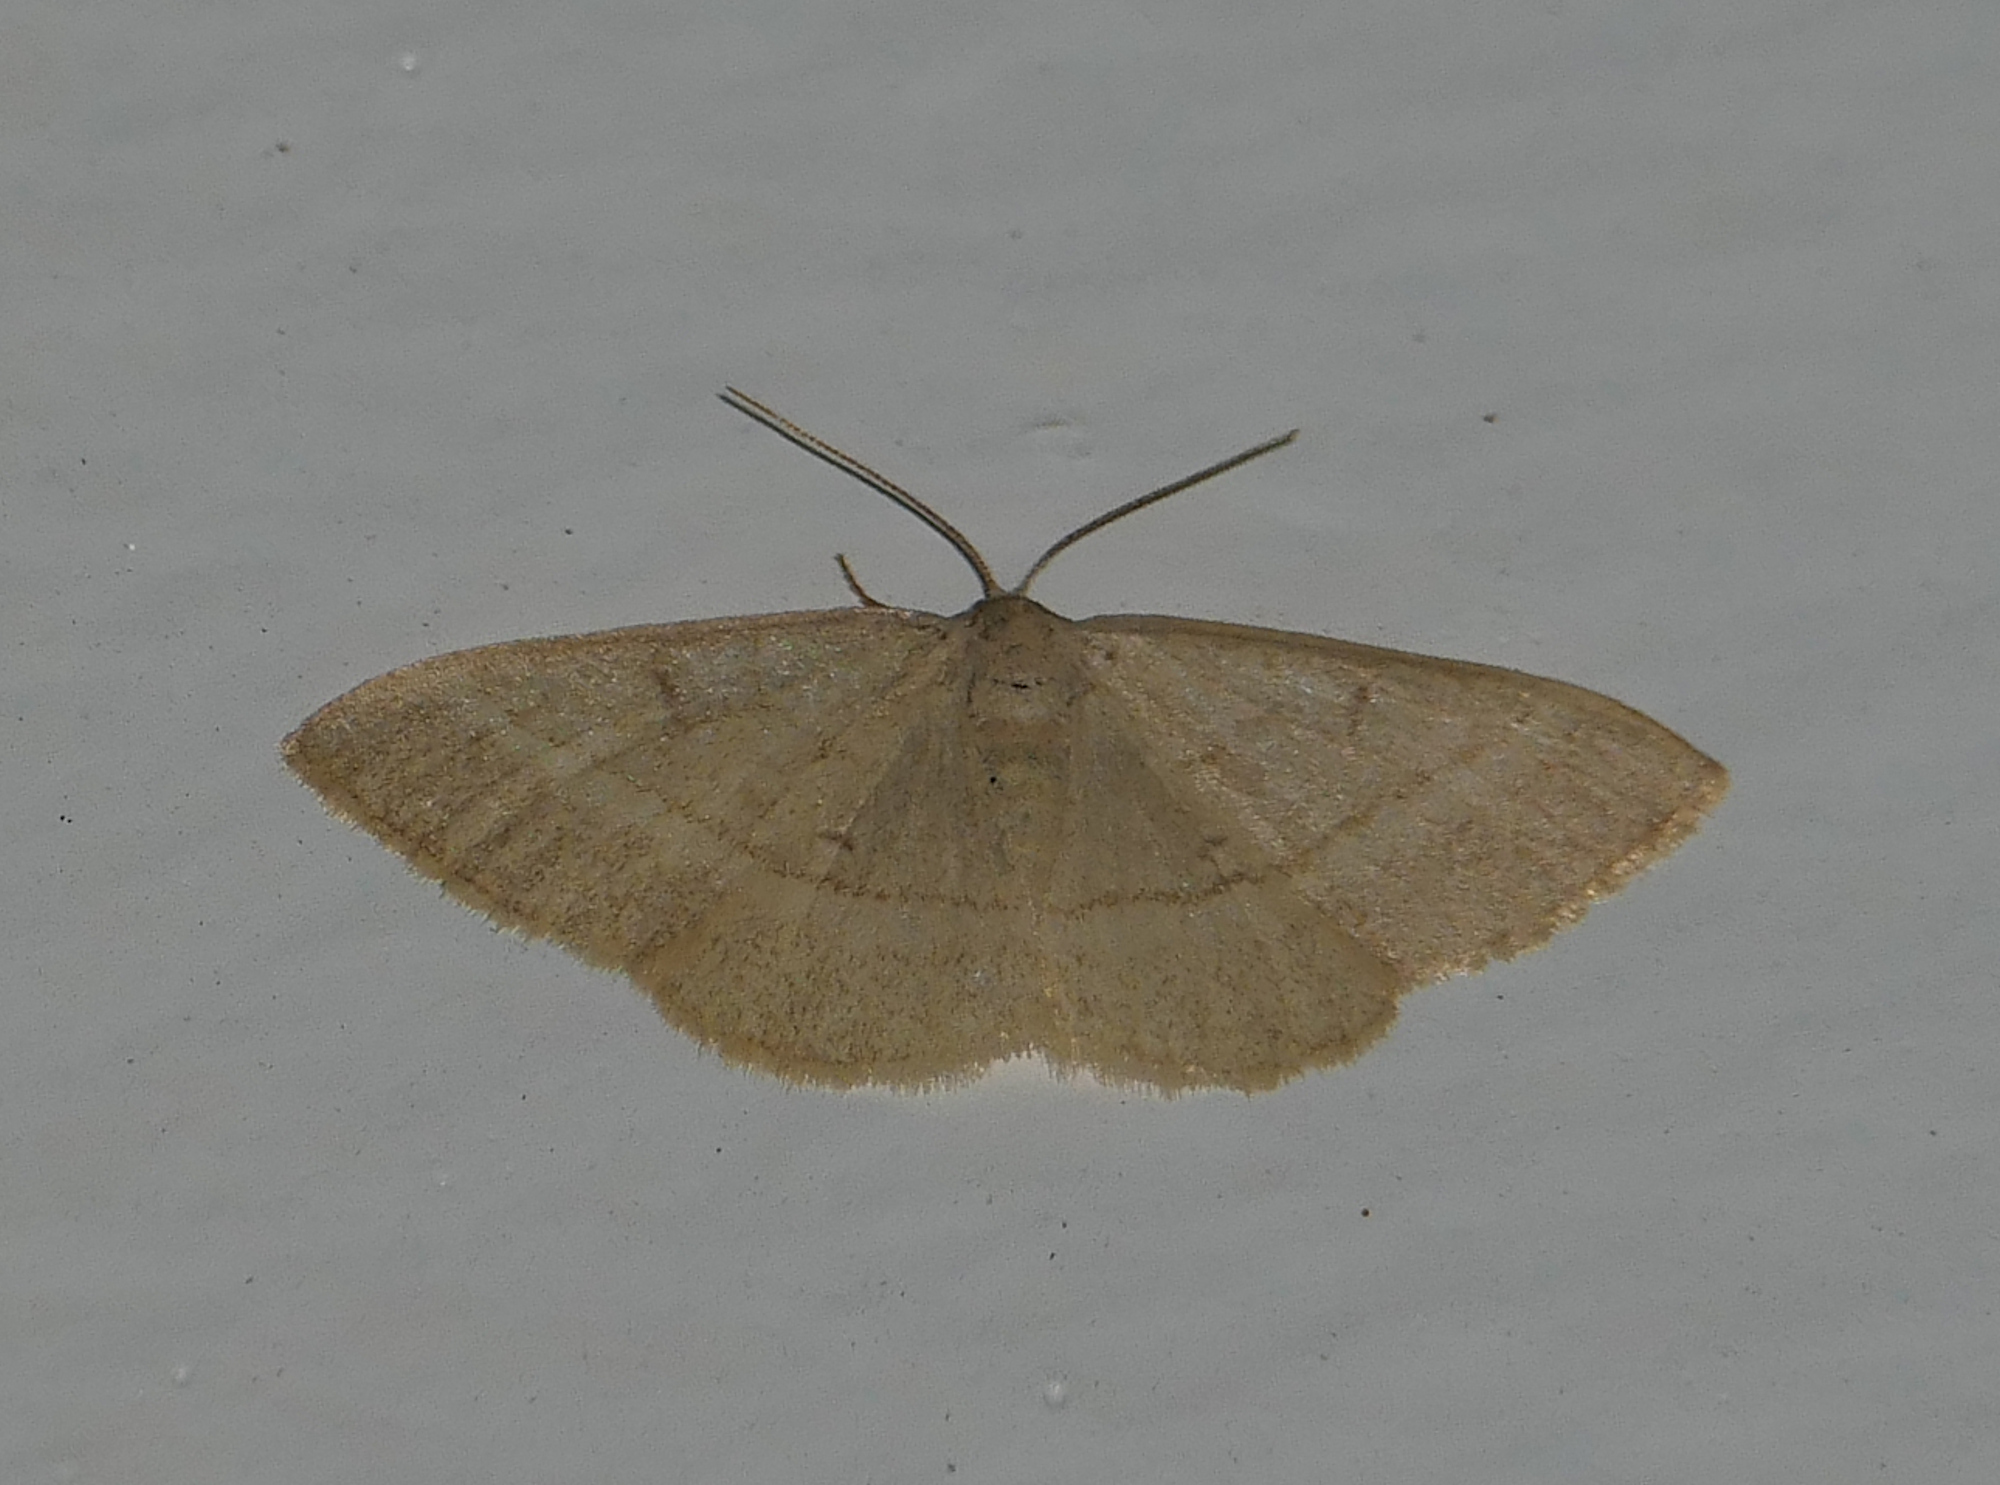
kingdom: Animalia
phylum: Arthropoda
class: Insecta
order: Lepidoptera
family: Geometridae
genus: Sperrya
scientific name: Sperrya cervula
